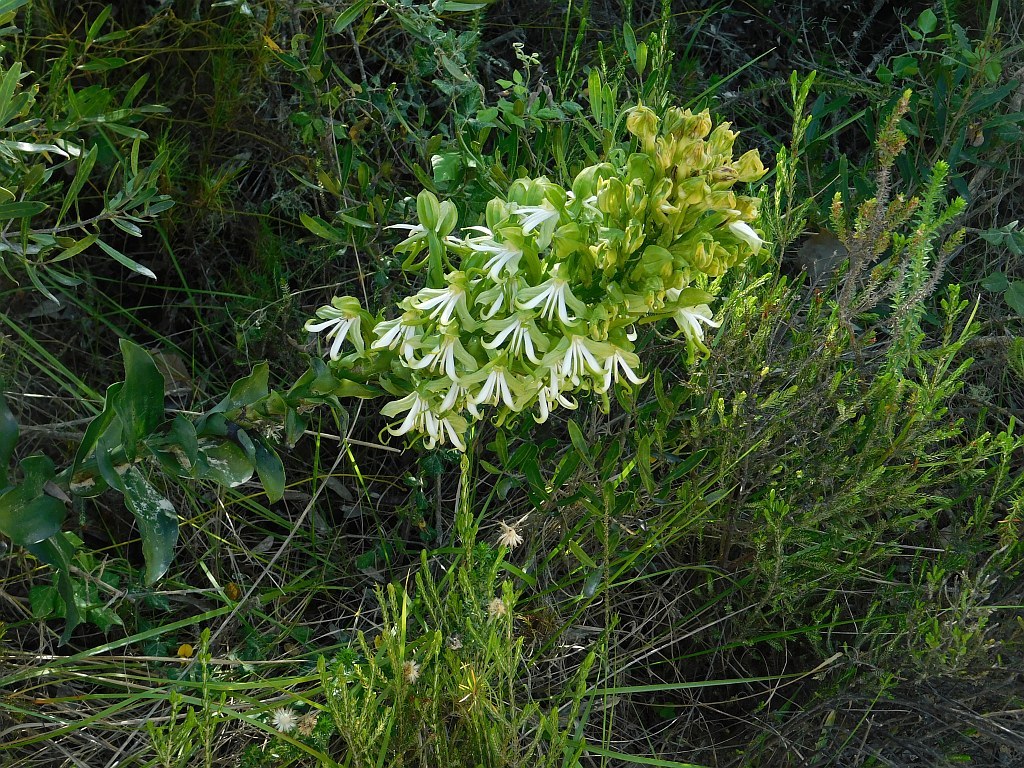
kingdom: Plantae
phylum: Tracheophyta
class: Liliopsida
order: Asparagales
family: Orchidaceae
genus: Bonatea
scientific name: Bonatea speciosa
